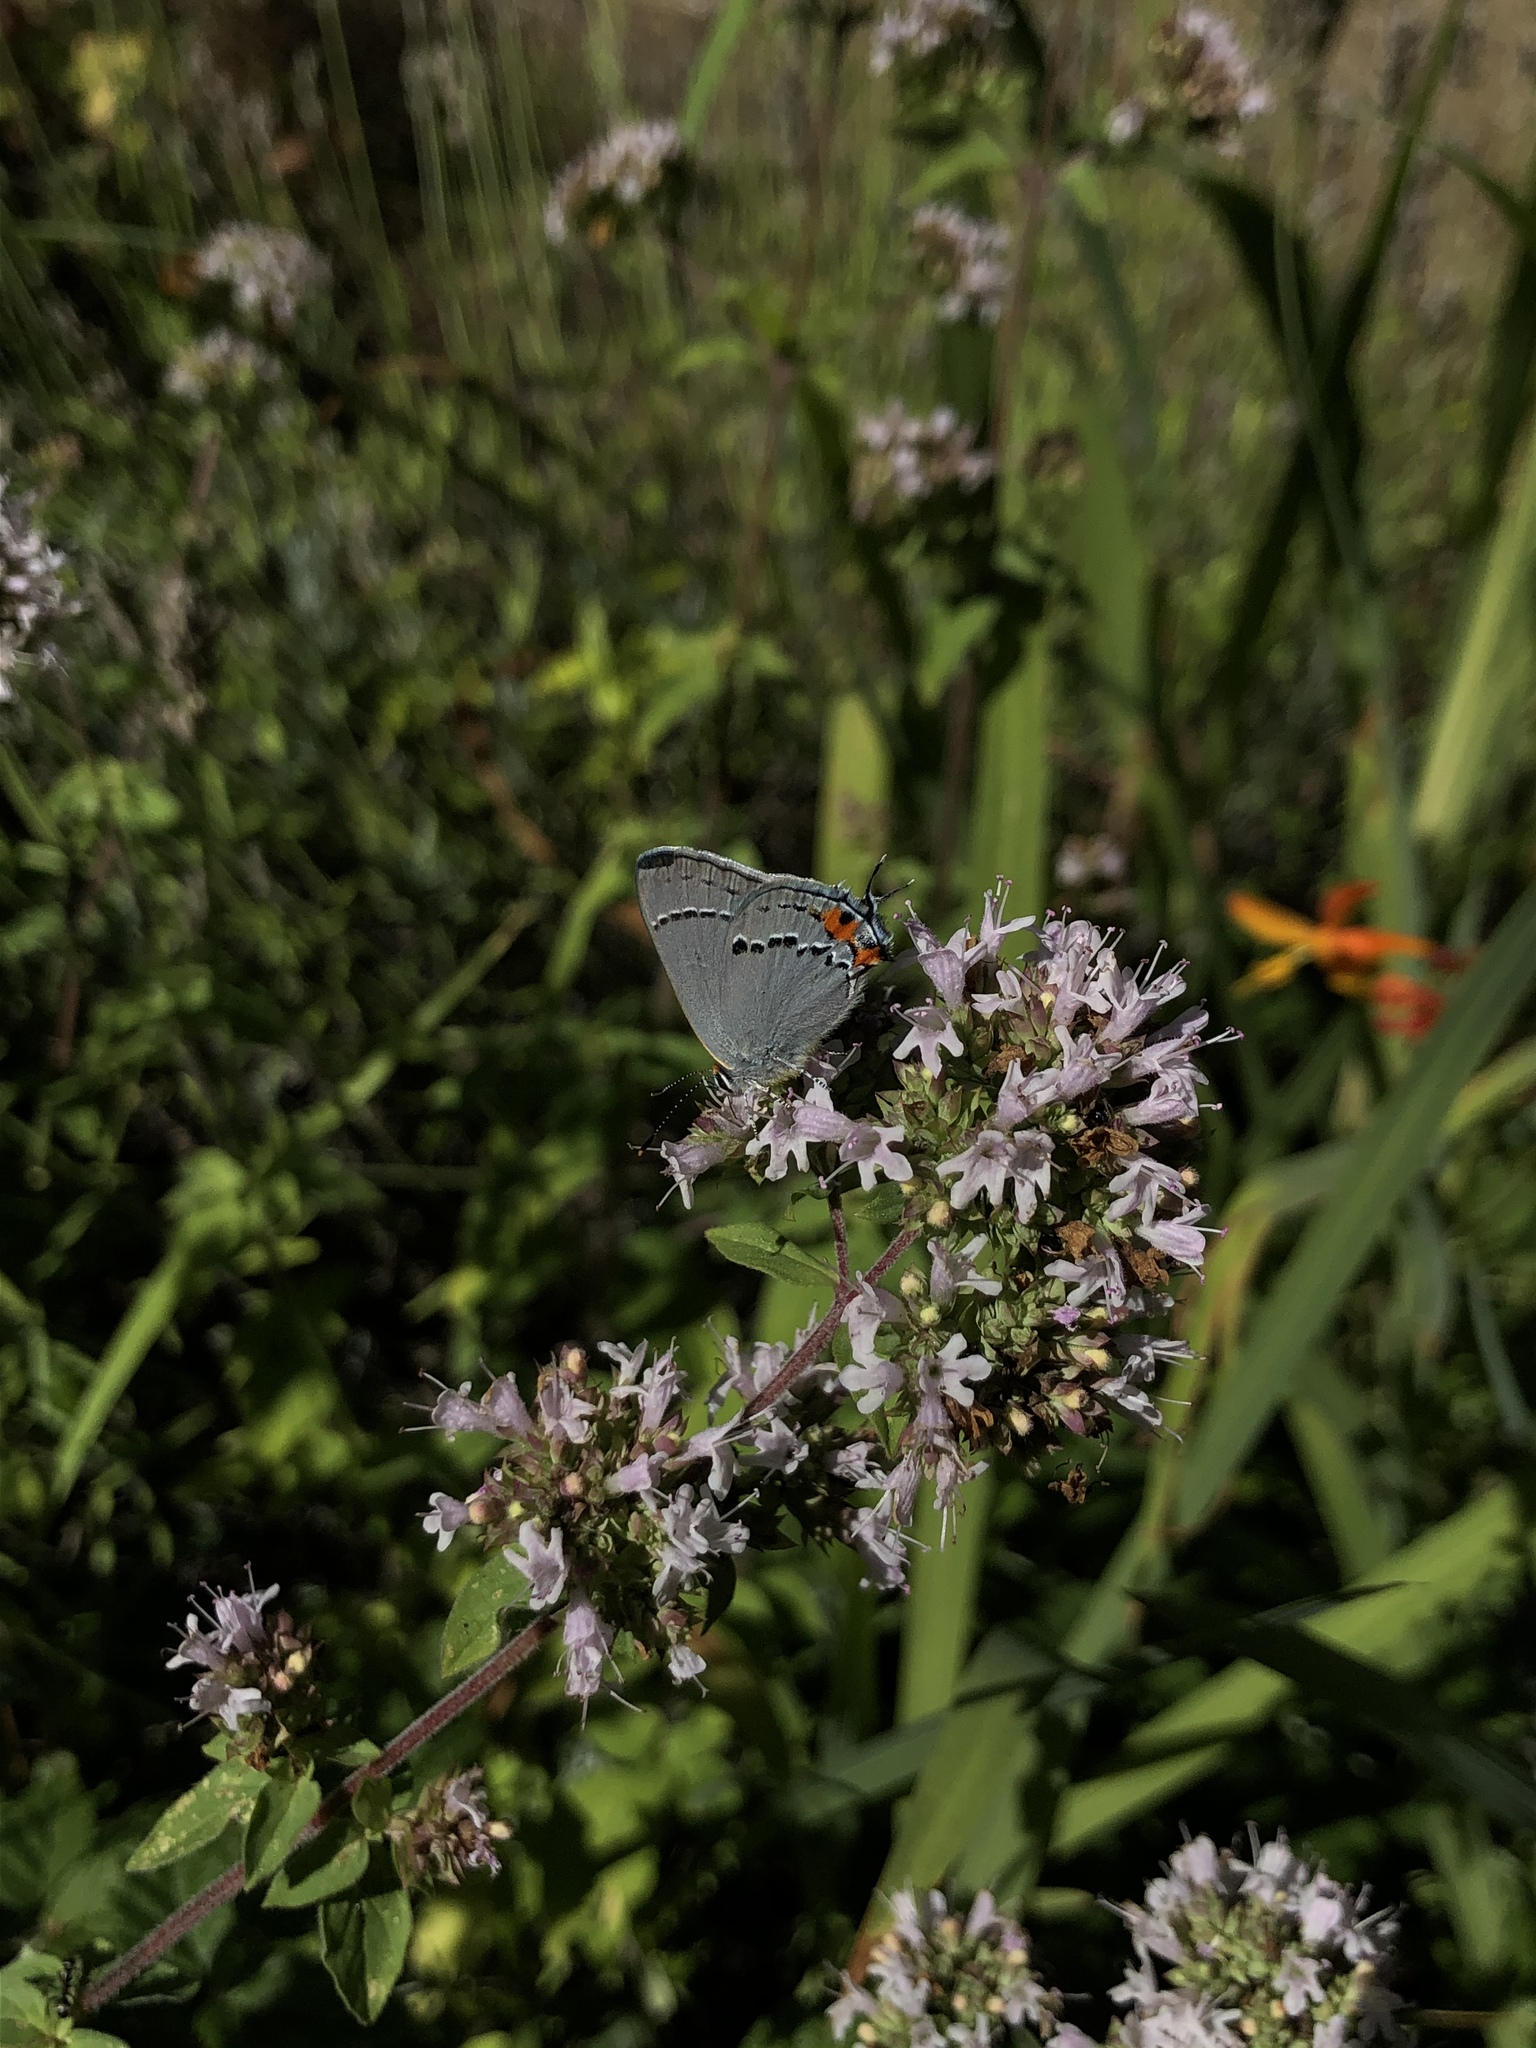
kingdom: Animalia
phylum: Arthropoda
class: Insecta
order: Lepidoptera
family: Lycaenidae
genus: Strymon
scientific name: Strymon melinus
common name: Gray hairstreak
